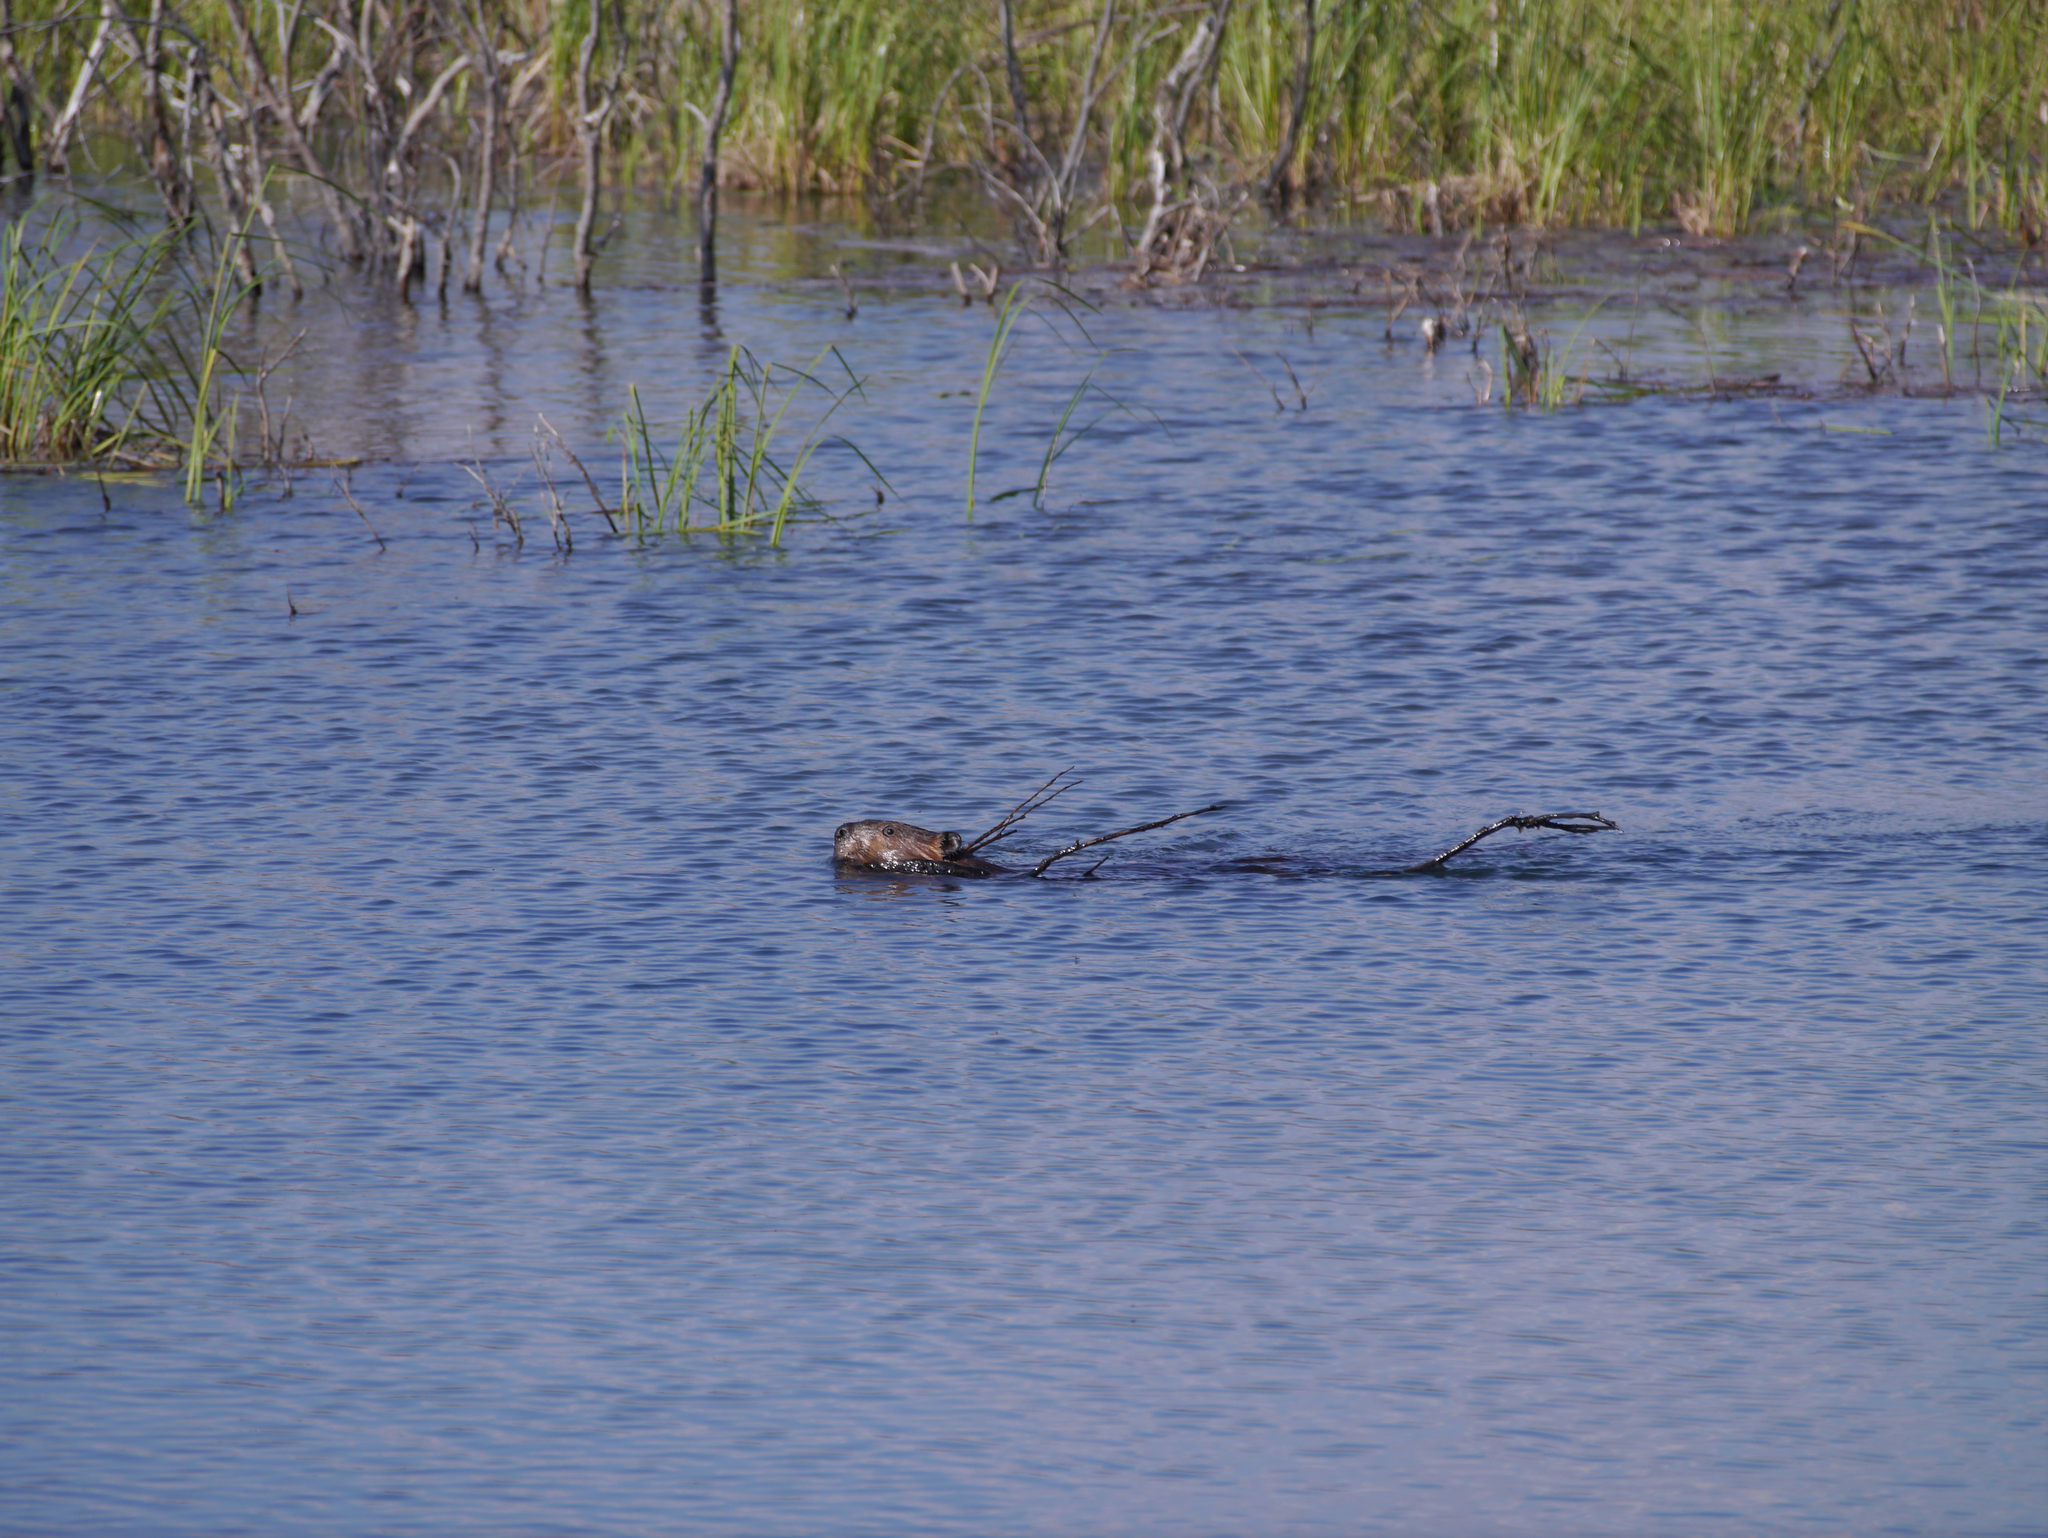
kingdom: Animalia
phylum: Chordata
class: Mammalia
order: Rodentia
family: Castoridae
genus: Castor
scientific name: Castor canadensis
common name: American beaver
